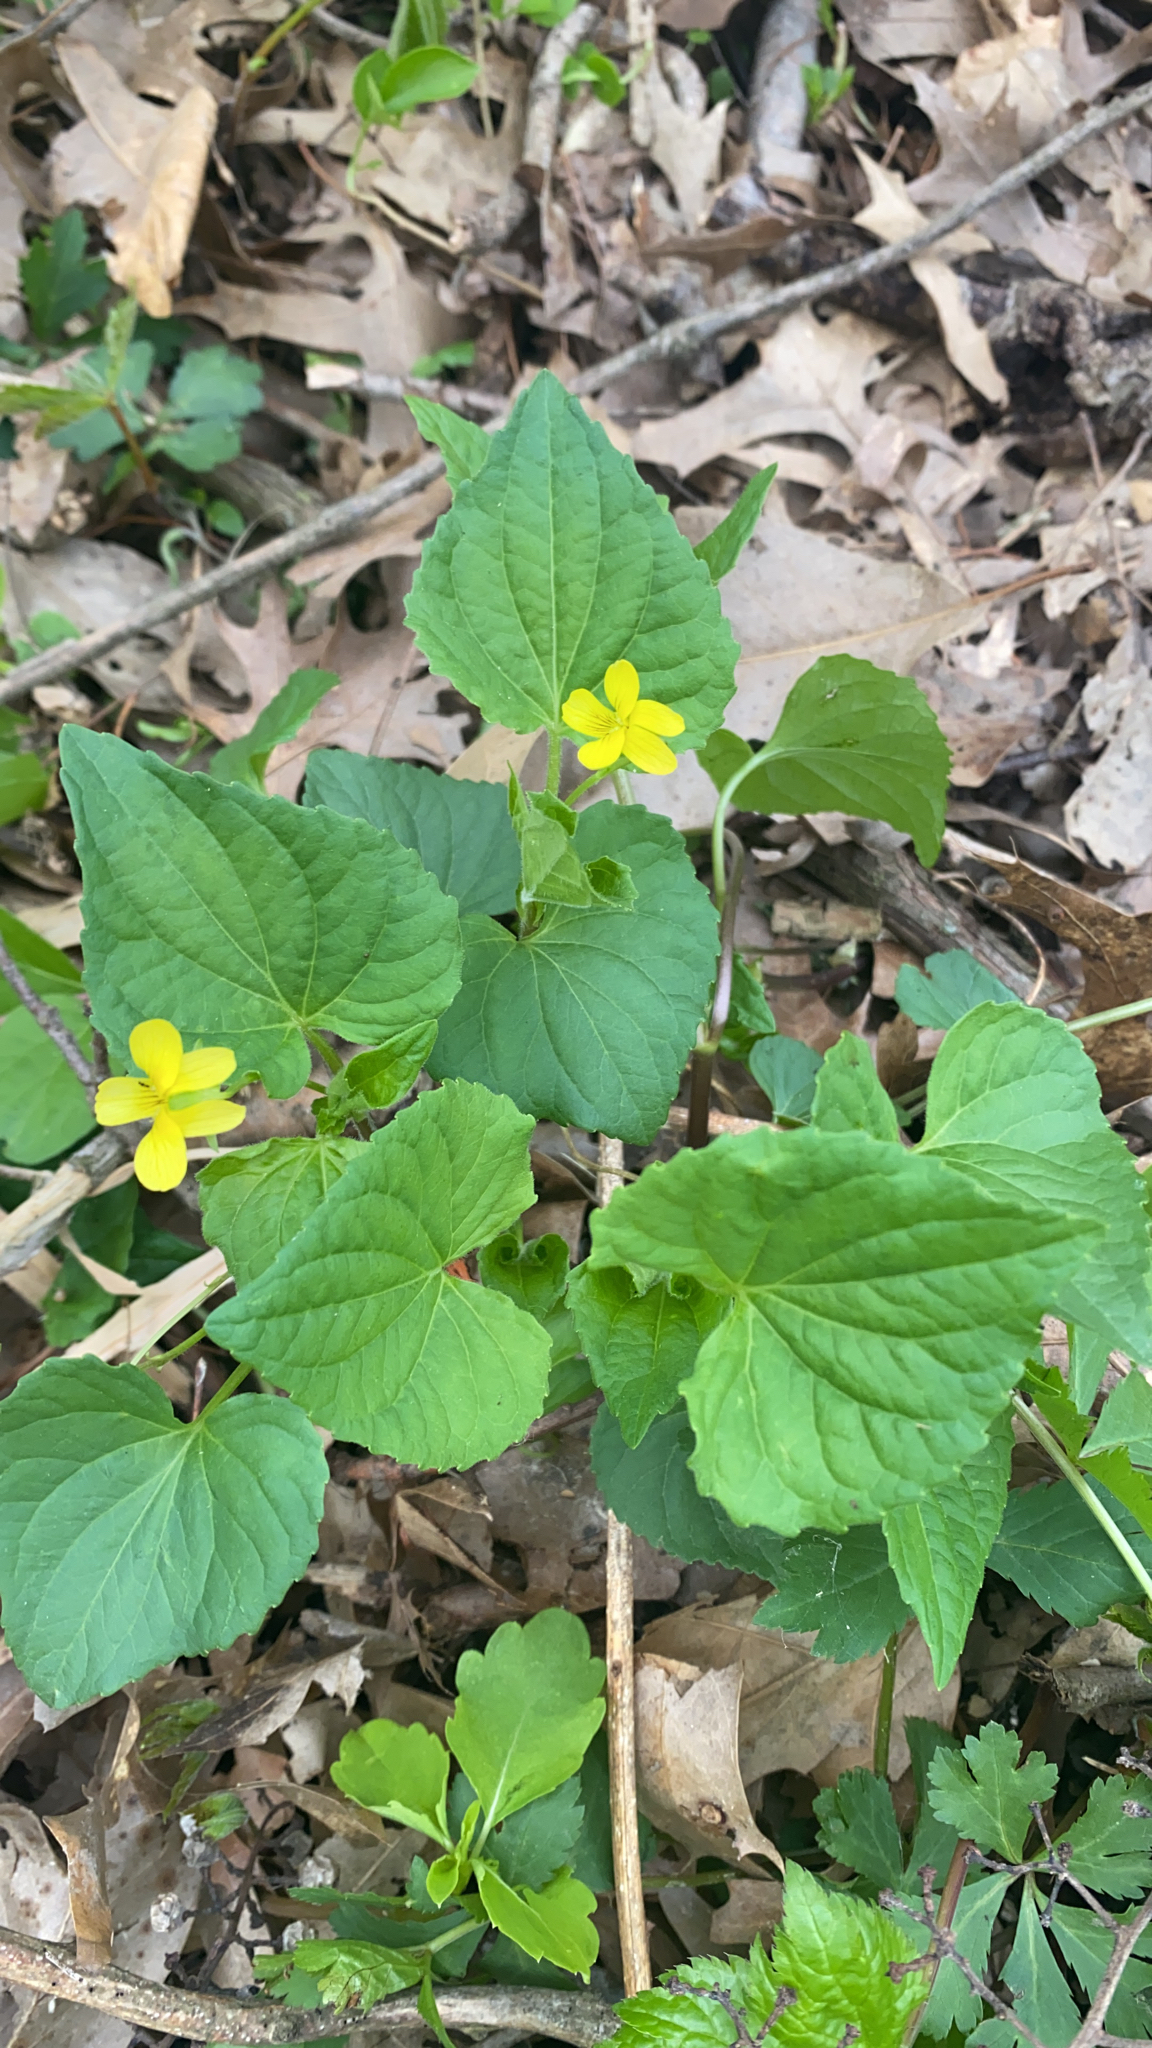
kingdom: Plantae
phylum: Tracheophyta
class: Magnoliopsida
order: Malpighiales
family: Violaceae
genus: Viola
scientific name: Viola eriocarpa
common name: Smooth yellow violet
